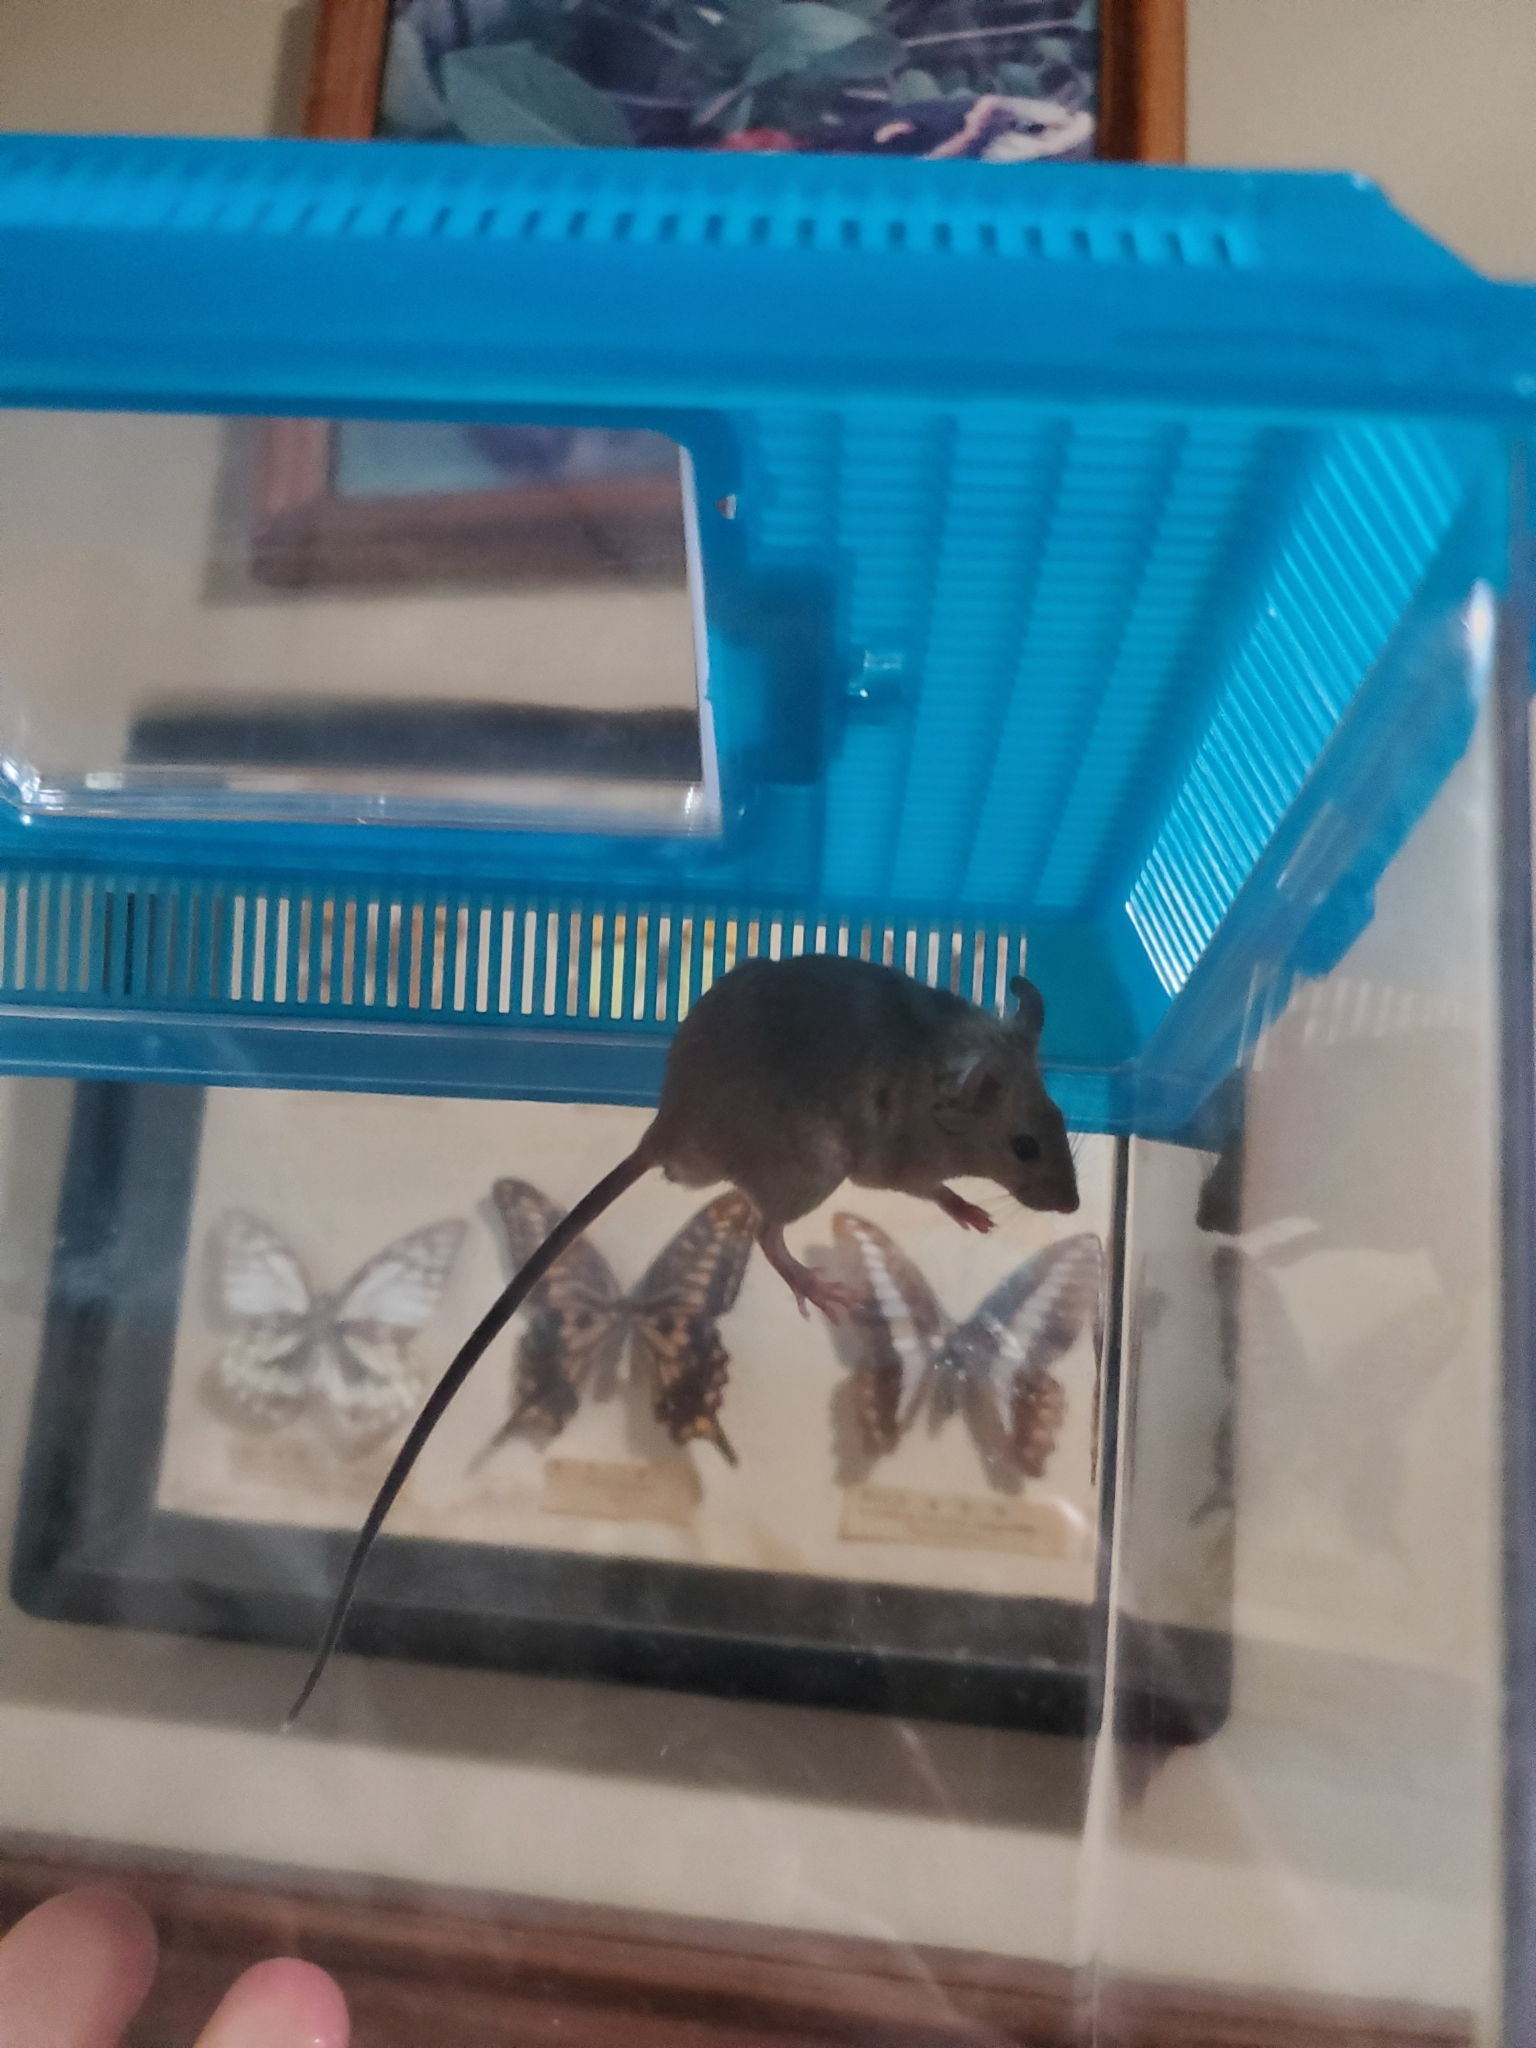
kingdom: Animalia
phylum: Chordata
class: Mammalia
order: Rodentia
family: Muridae
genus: Mus
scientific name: Mus musculus
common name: House mouse
